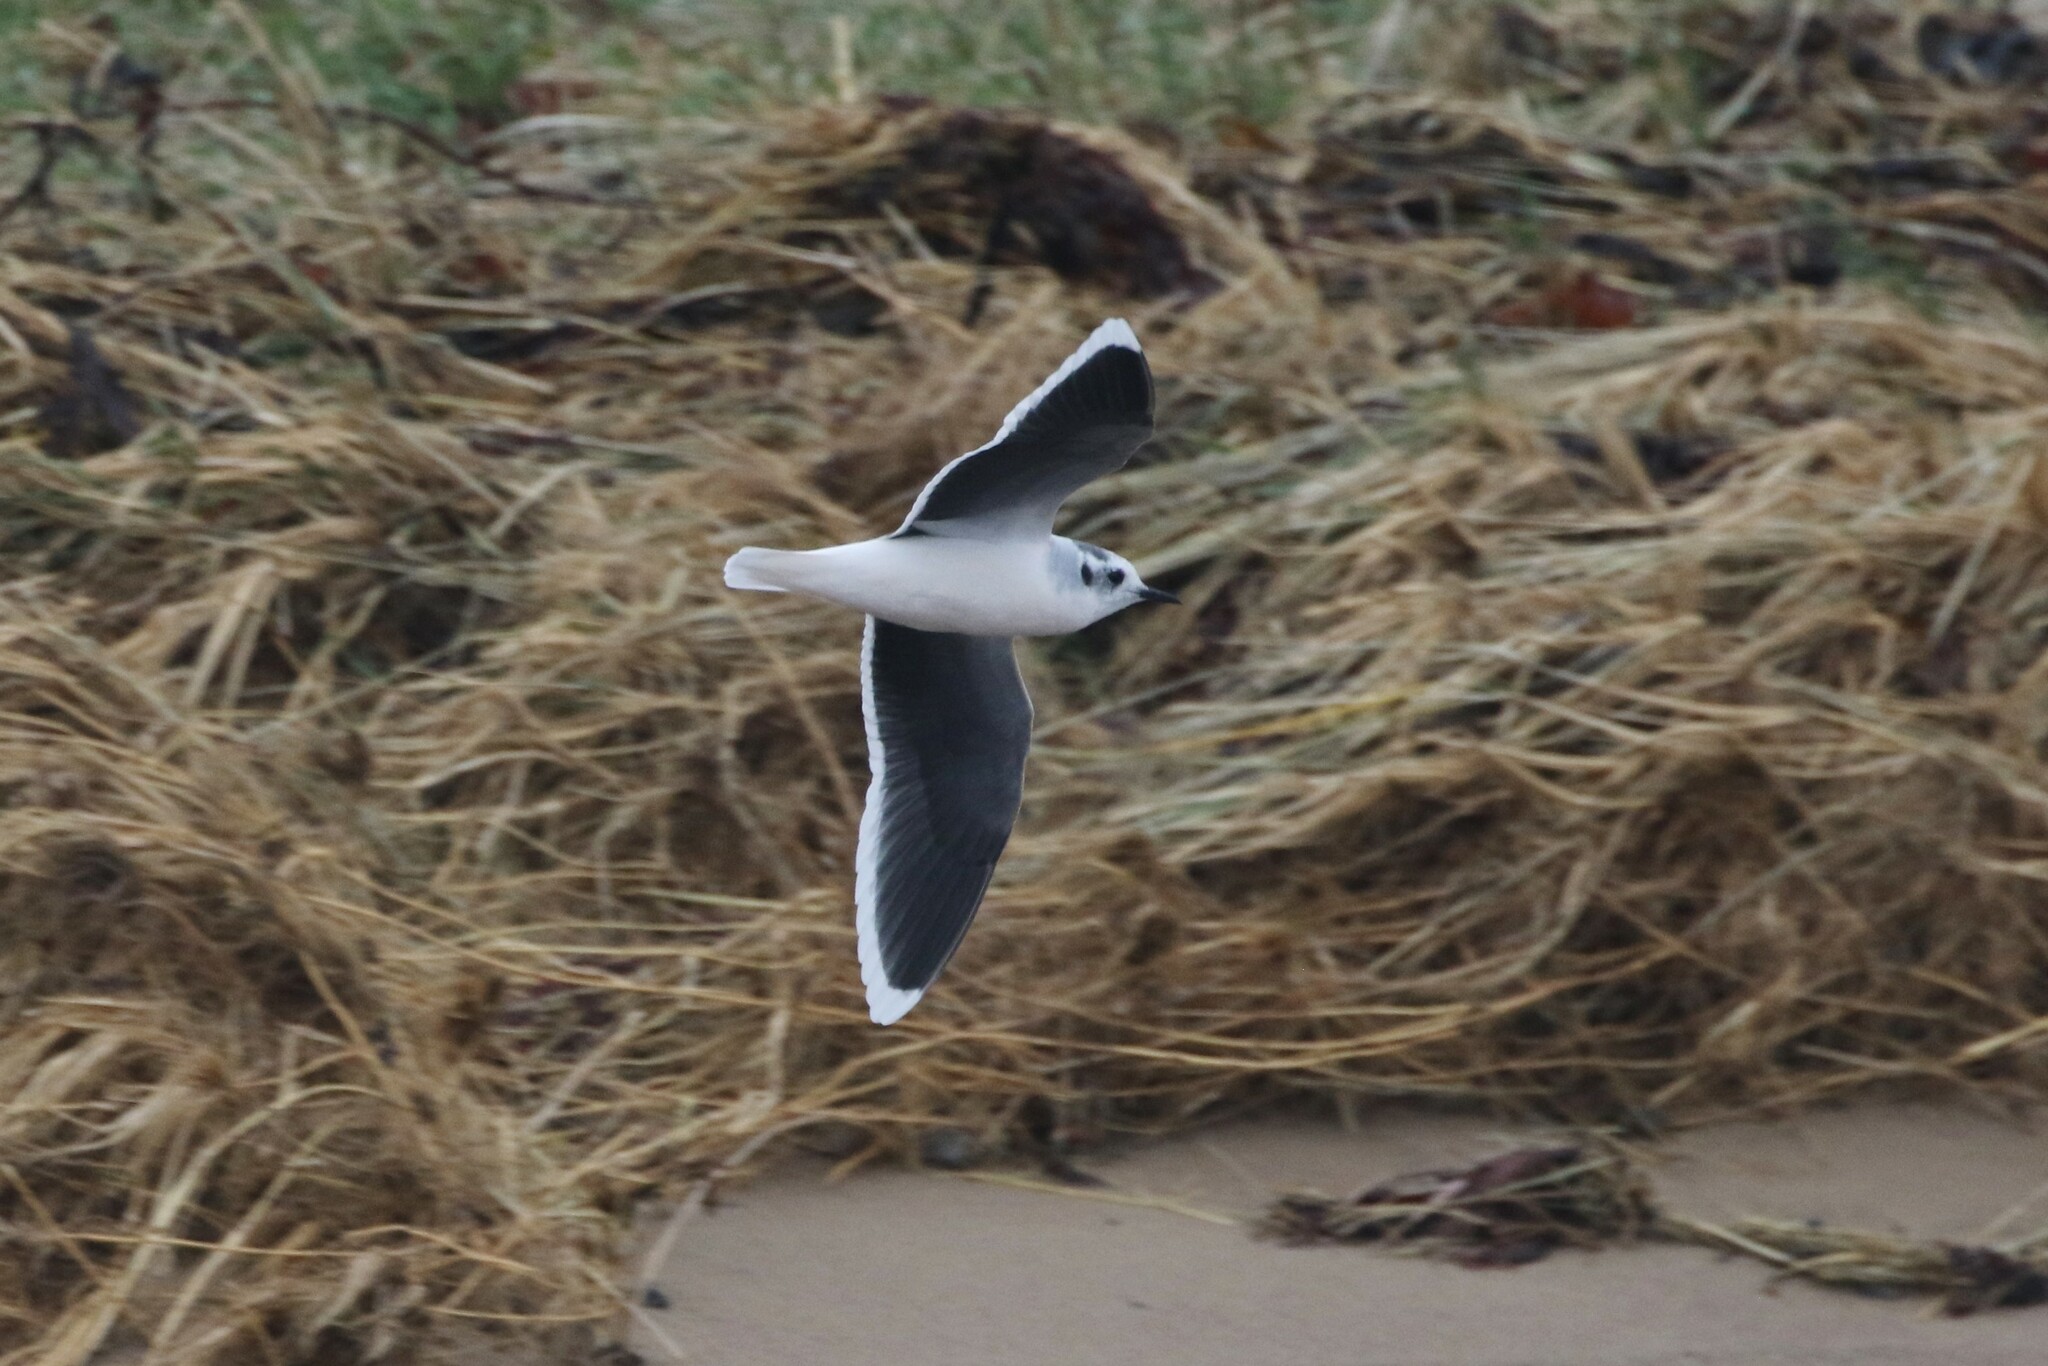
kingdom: Animalia
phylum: Chordata
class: Aves
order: Charadriiformes
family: Laridae
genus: Hydrocoloeus
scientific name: Hydrocoloeus minutus
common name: Little gull
